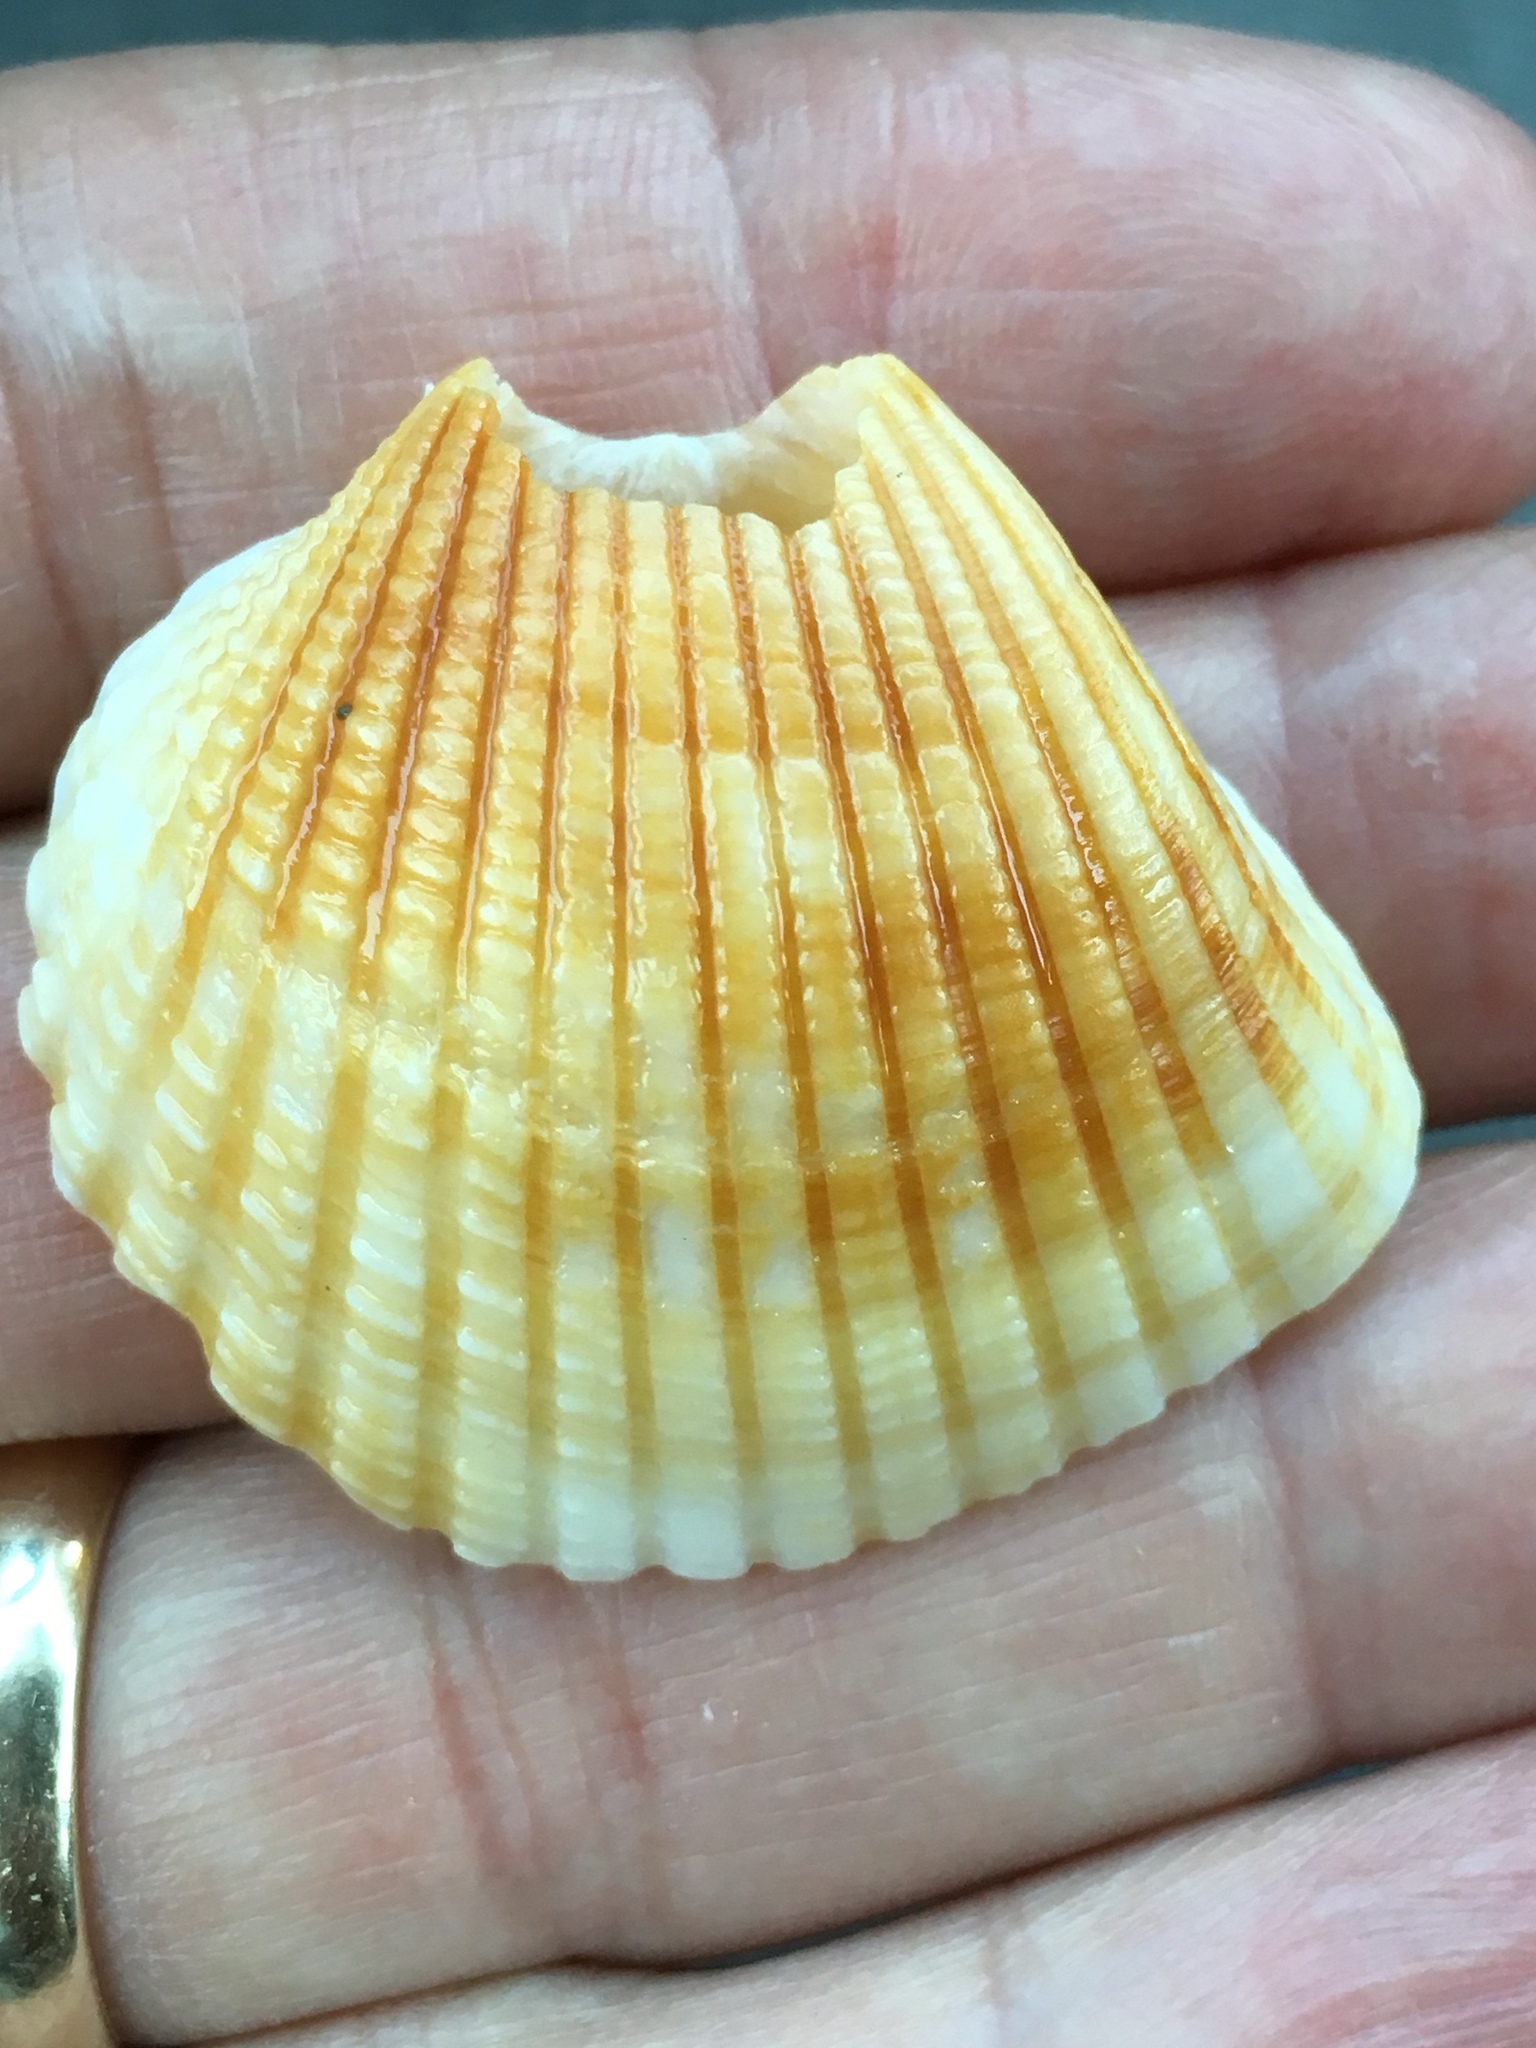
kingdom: Animalia
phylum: Mollusca
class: Bivalvia
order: Arcida
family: Arcidae
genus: Anadara
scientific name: Anadara brasiliana
